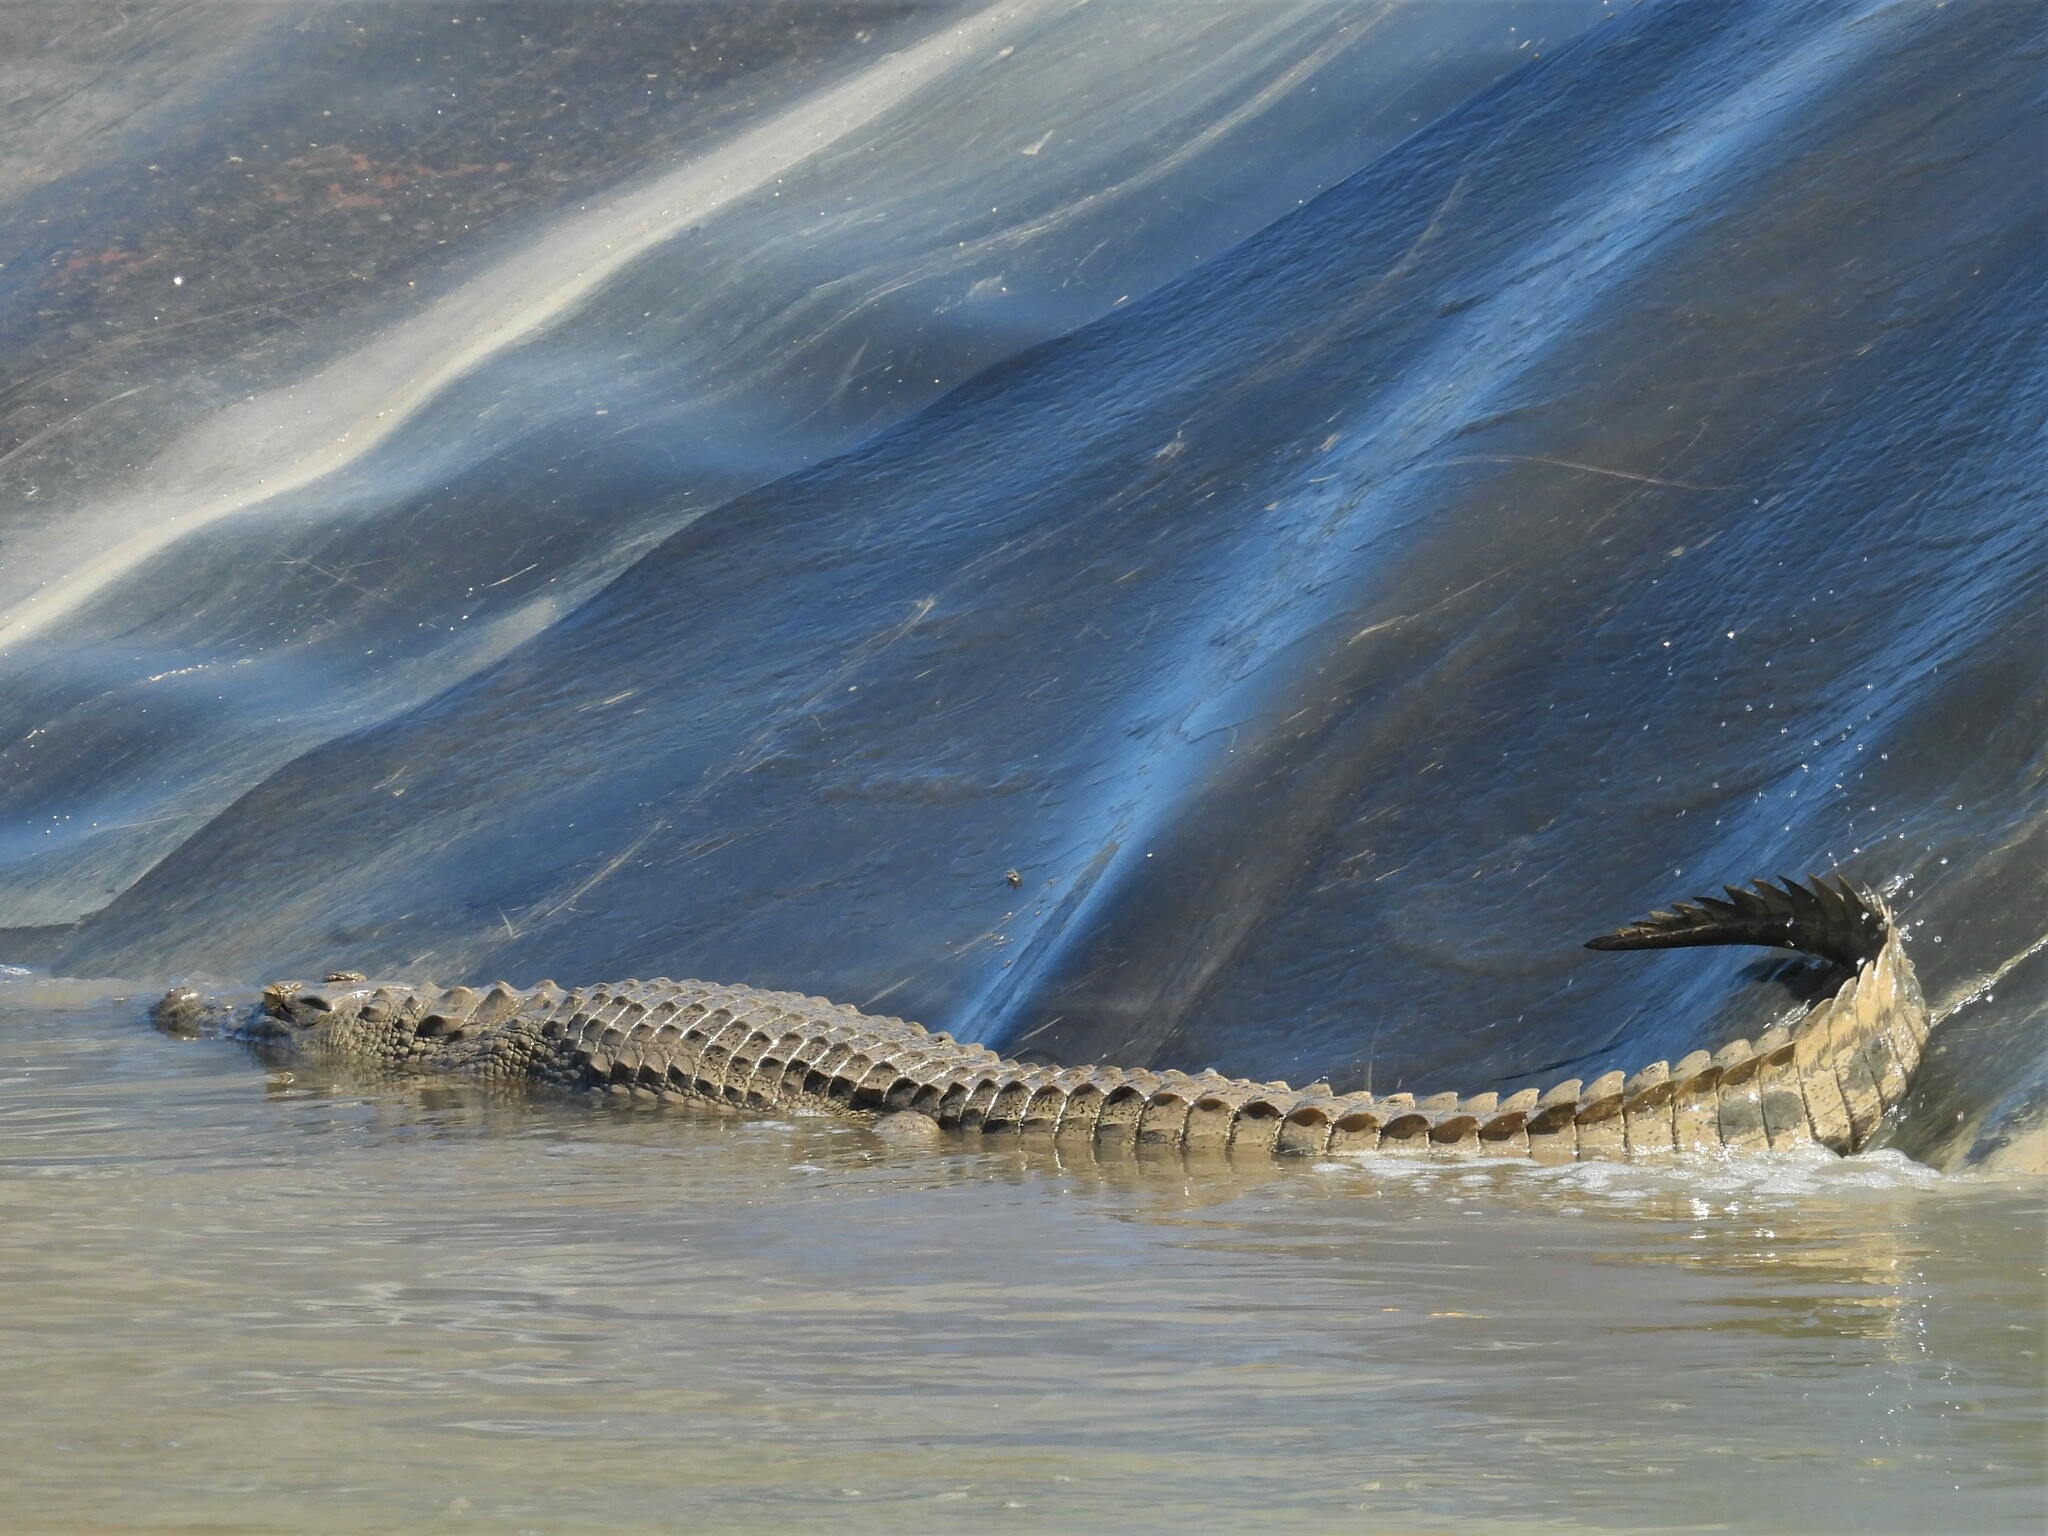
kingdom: Animalia
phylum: Chordata
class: Crocodylia
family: Crocodylidae
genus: Crocodylus
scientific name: Crocodylus niloticus
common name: Nile crocodile
